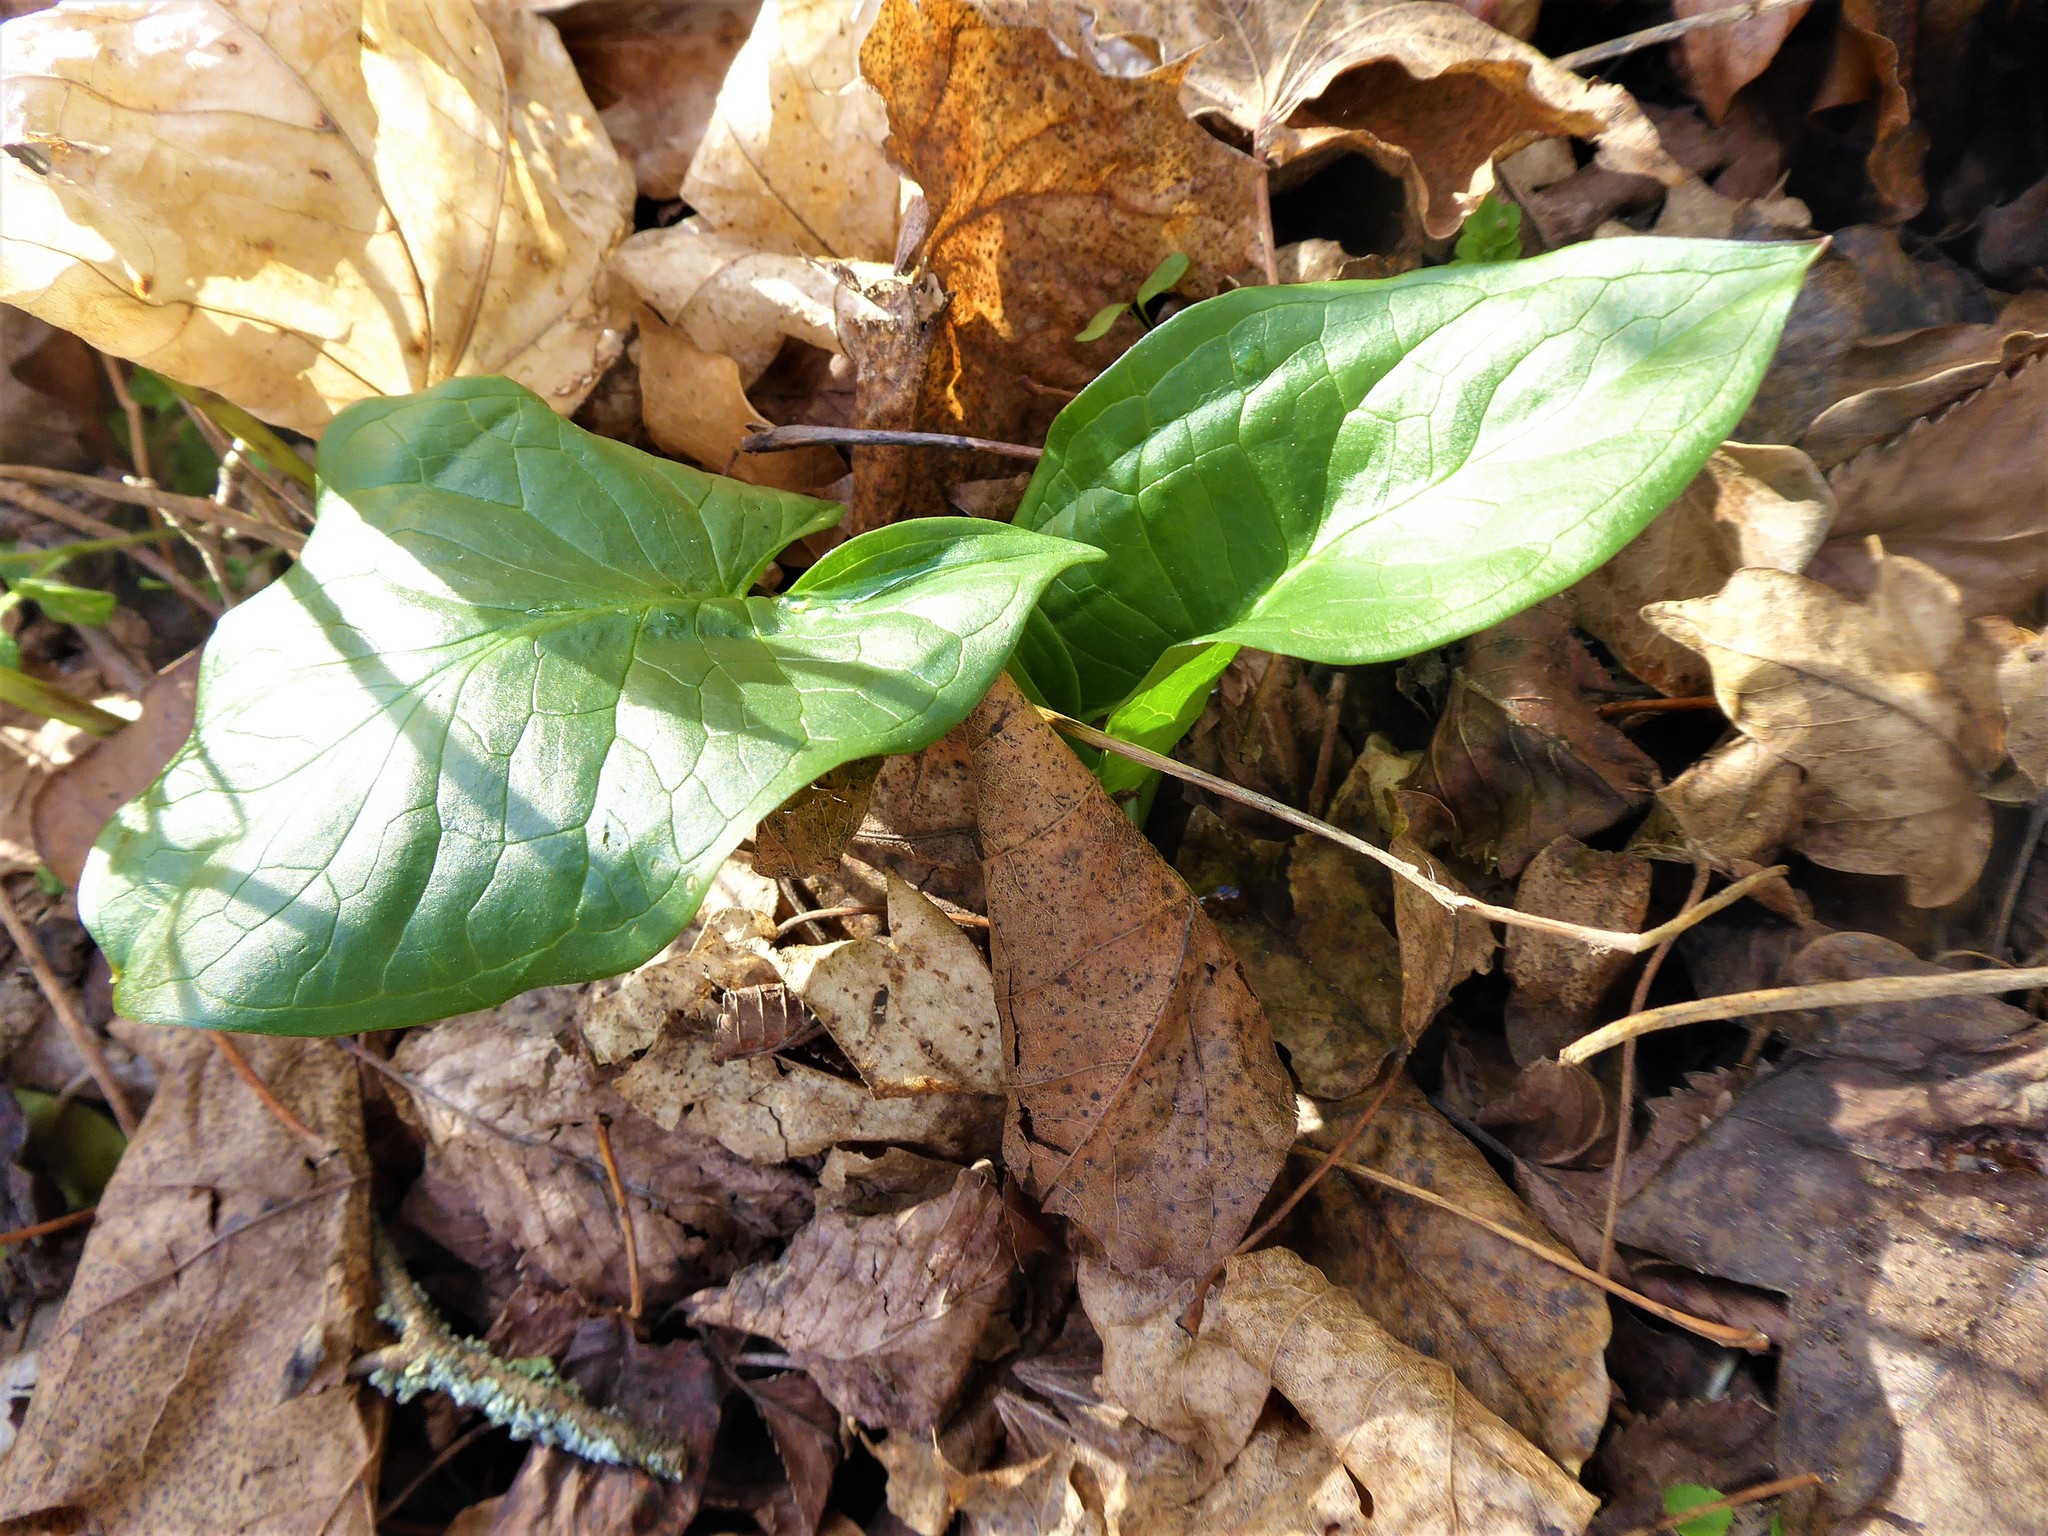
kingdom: Plantae
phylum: Tracheophyta
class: Liliopsida
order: Alismatales
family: Araceae
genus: Arum
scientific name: Arum cylindraceum
